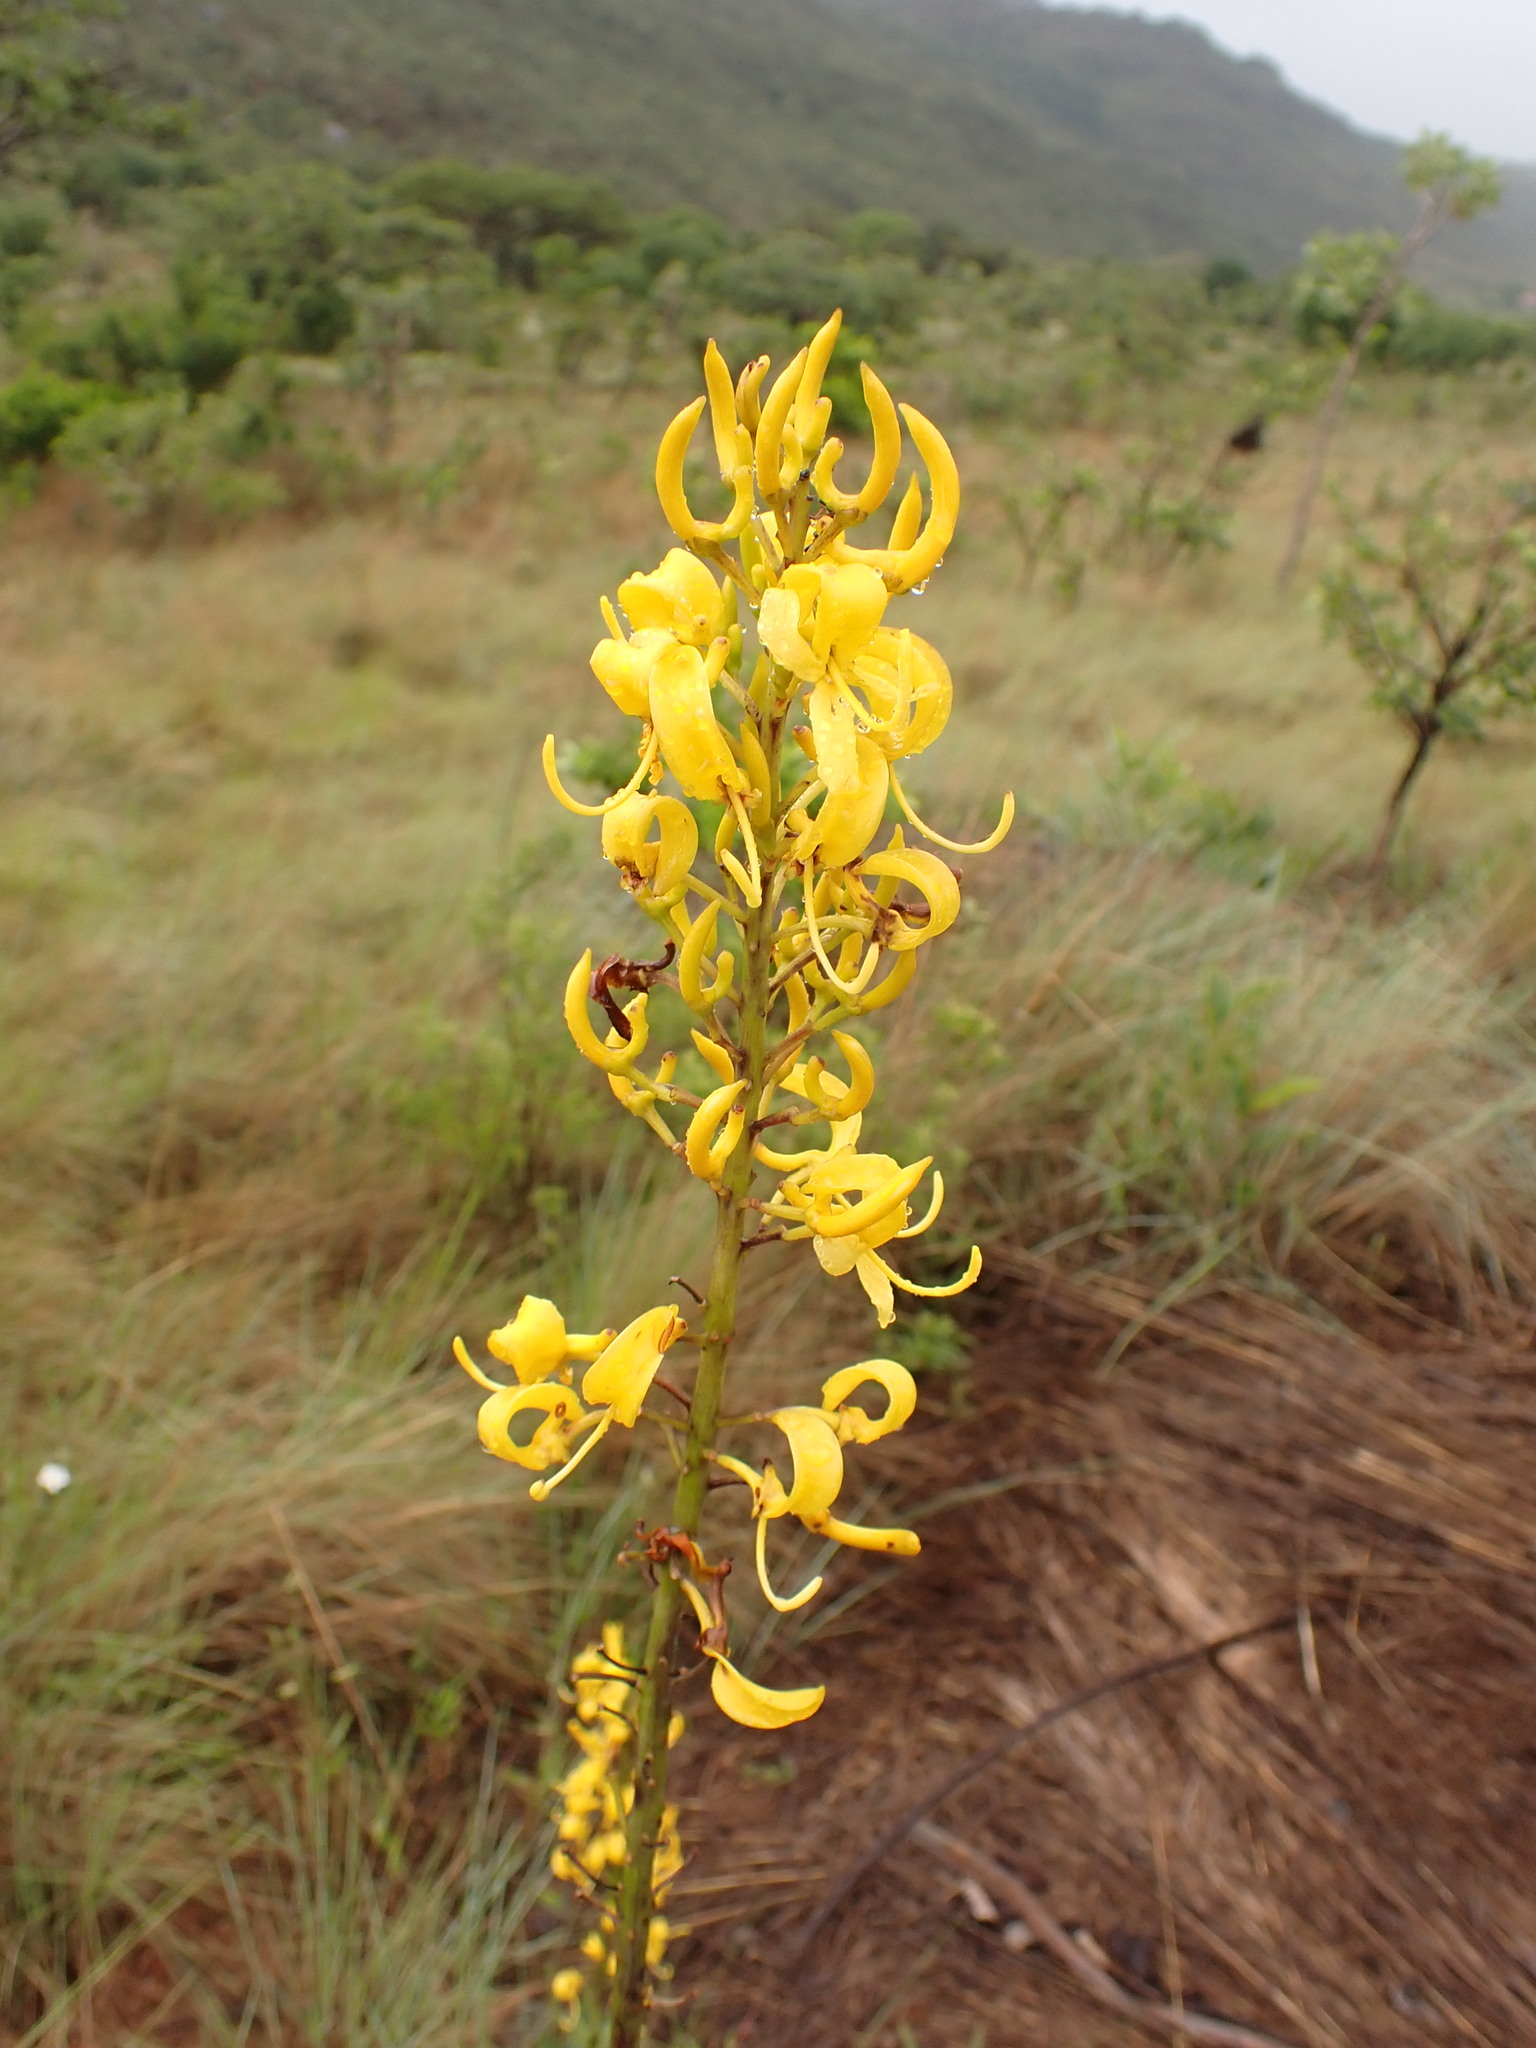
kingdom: Plantae
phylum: Tracheophyta
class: Magnoliopsida
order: Myrtales
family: Vochysiaceae
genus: Vochysia
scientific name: Vochysia elliptica
